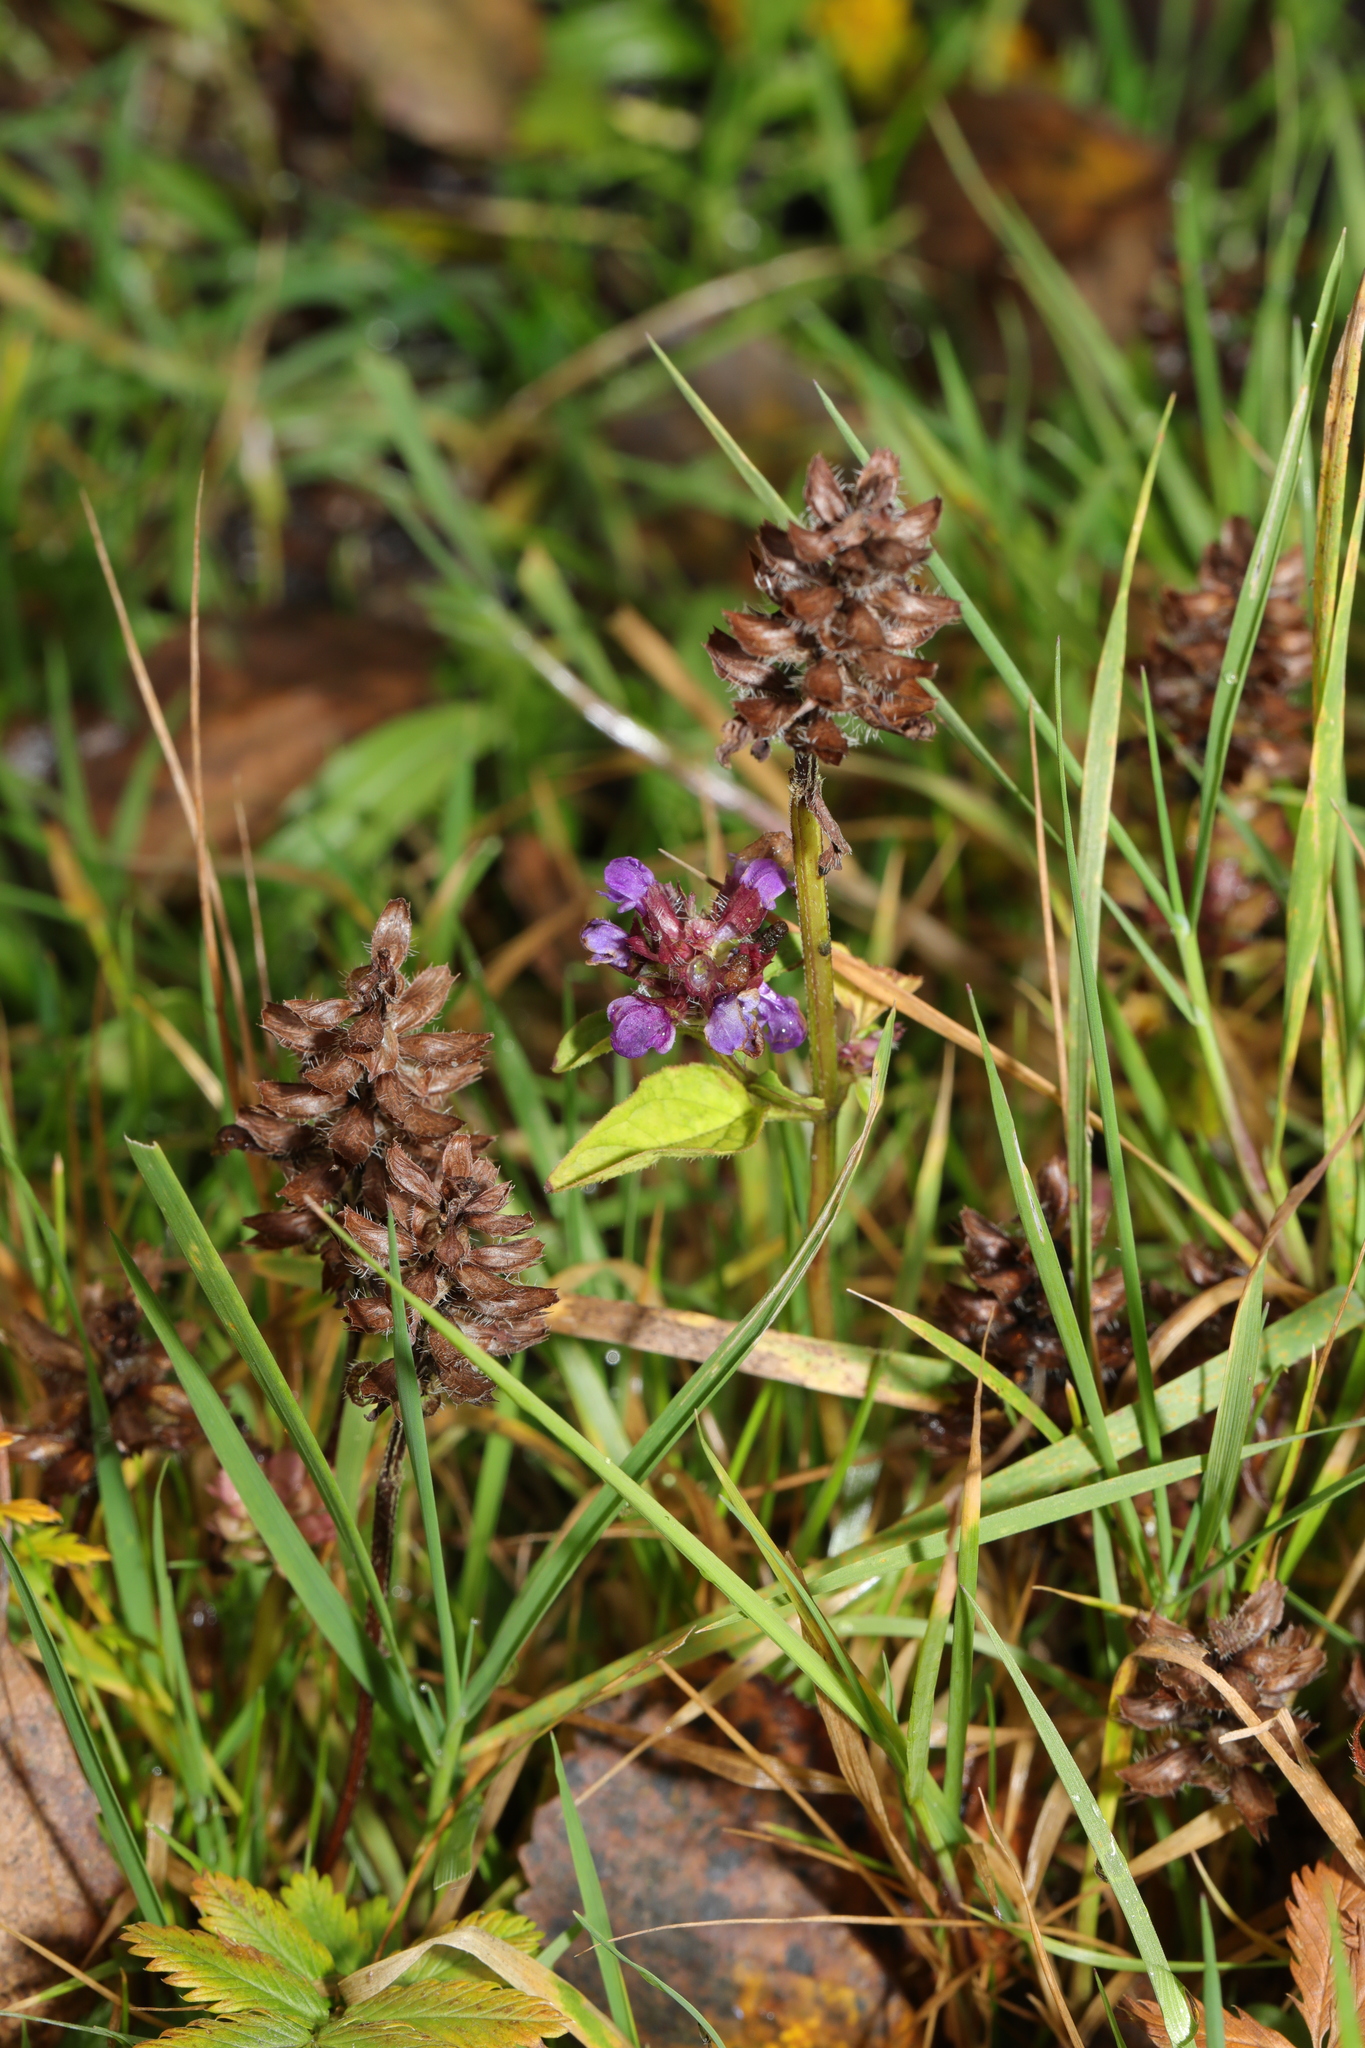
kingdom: Plantae
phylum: Tracheophyta
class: Magnoliopsida
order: Lamiales
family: Lamiaceae
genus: Prunella
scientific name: Prunella vulgaris
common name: Heal-all
